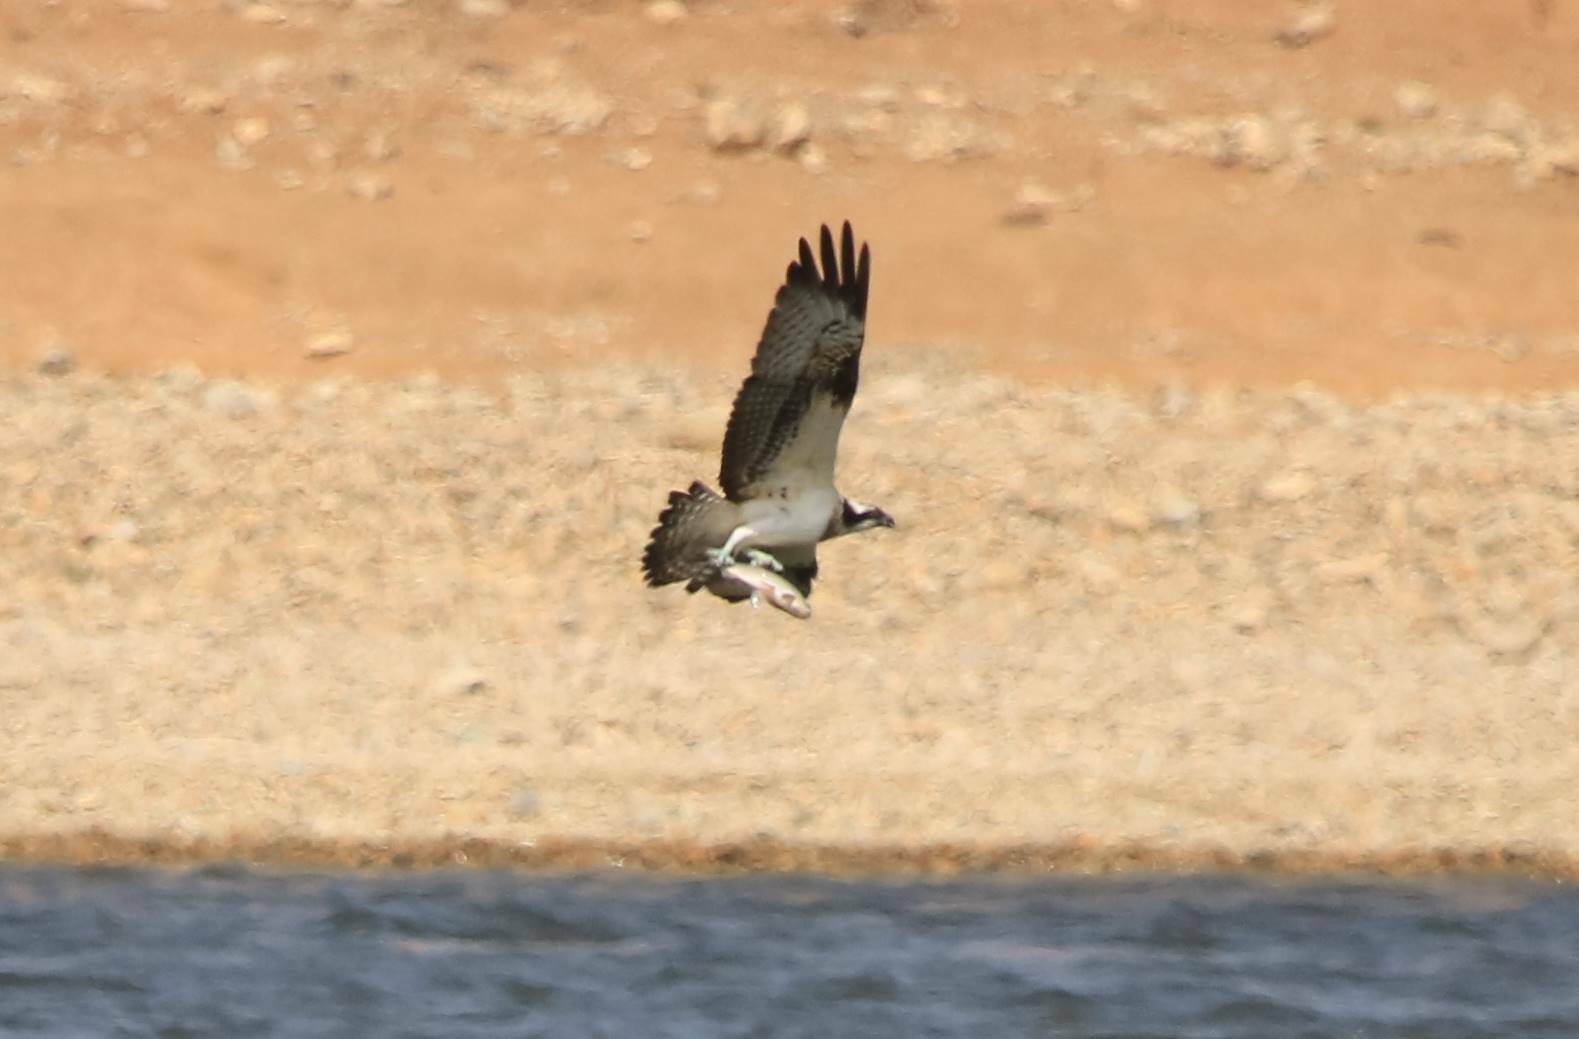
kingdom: Animalia
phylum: Chordata
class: Aves
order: Accipitriformes
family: Pandionidae
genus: Pandion
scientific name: Pandion haliaetus
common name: Osprey
